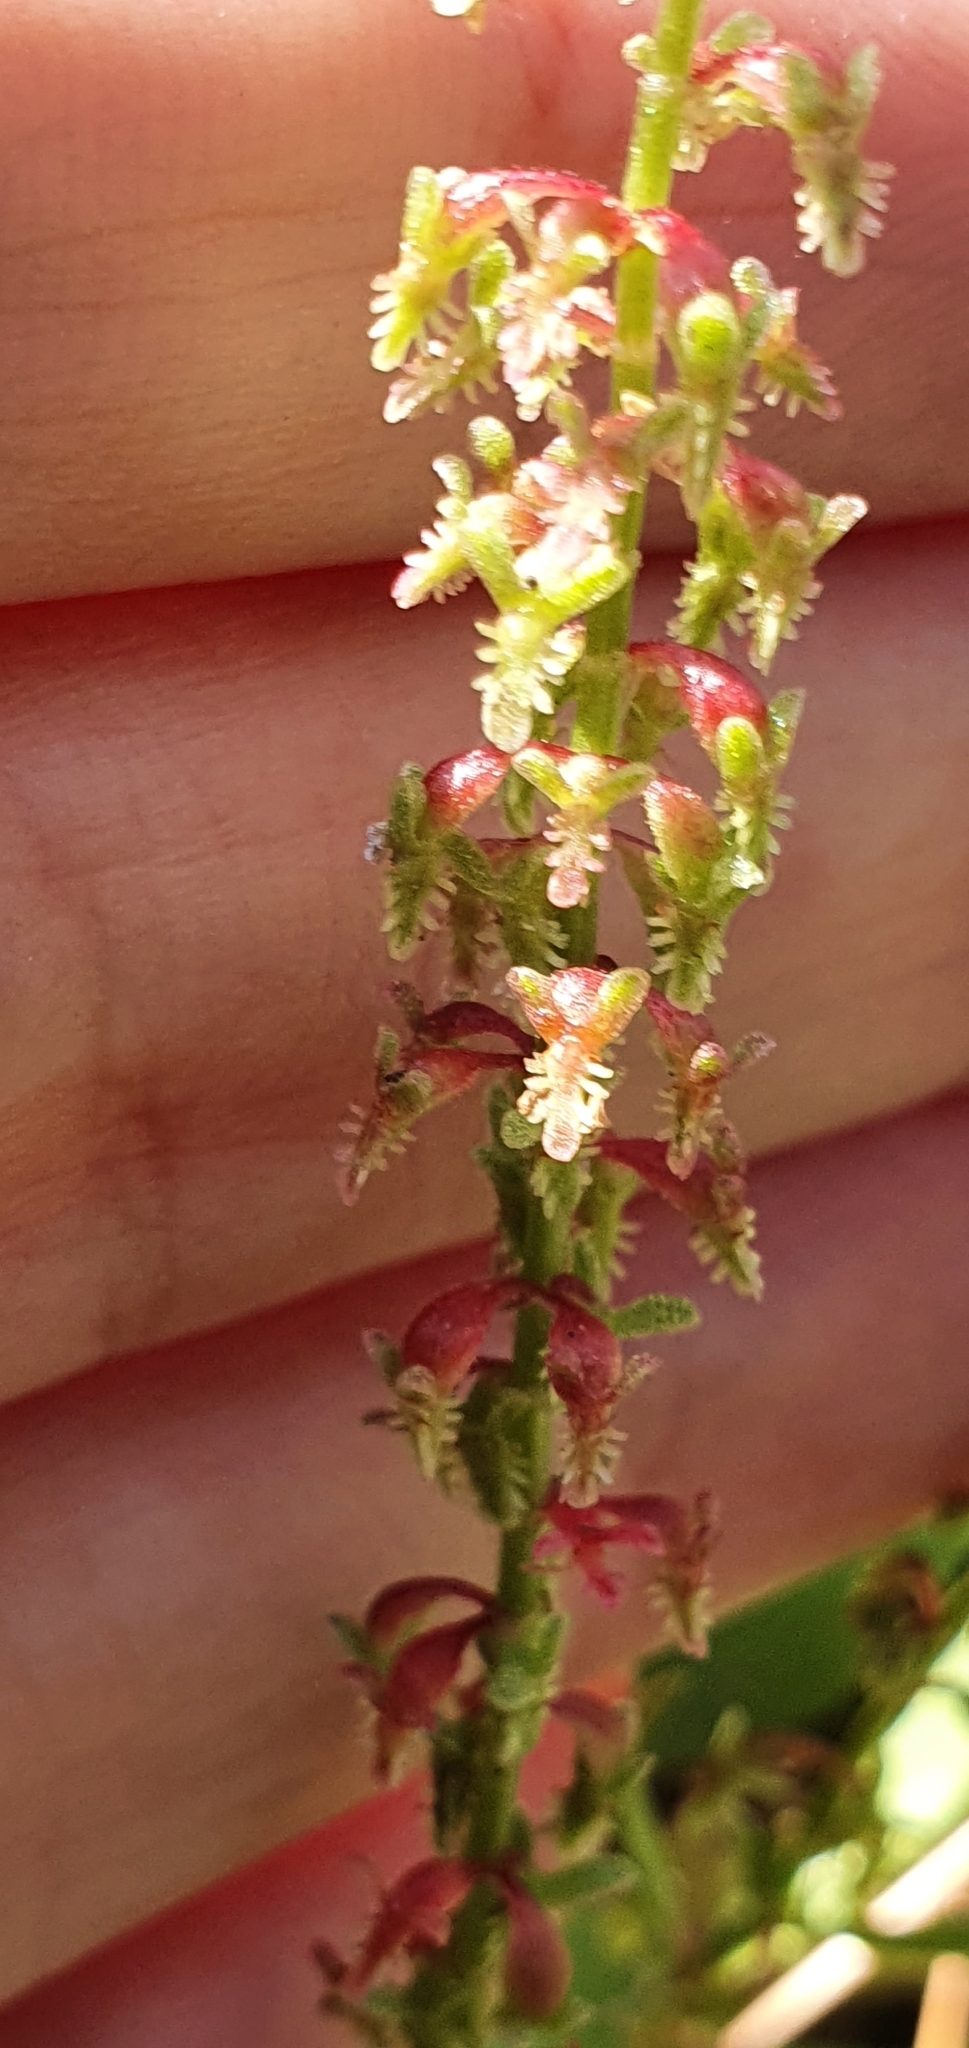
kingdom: Plantae
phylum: Tracheophyta
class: Magnoliopsida
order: Caryophyllales
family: Polygonaceae
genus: Rumex
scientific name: Rumex bucephalophorus
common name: Red dock
